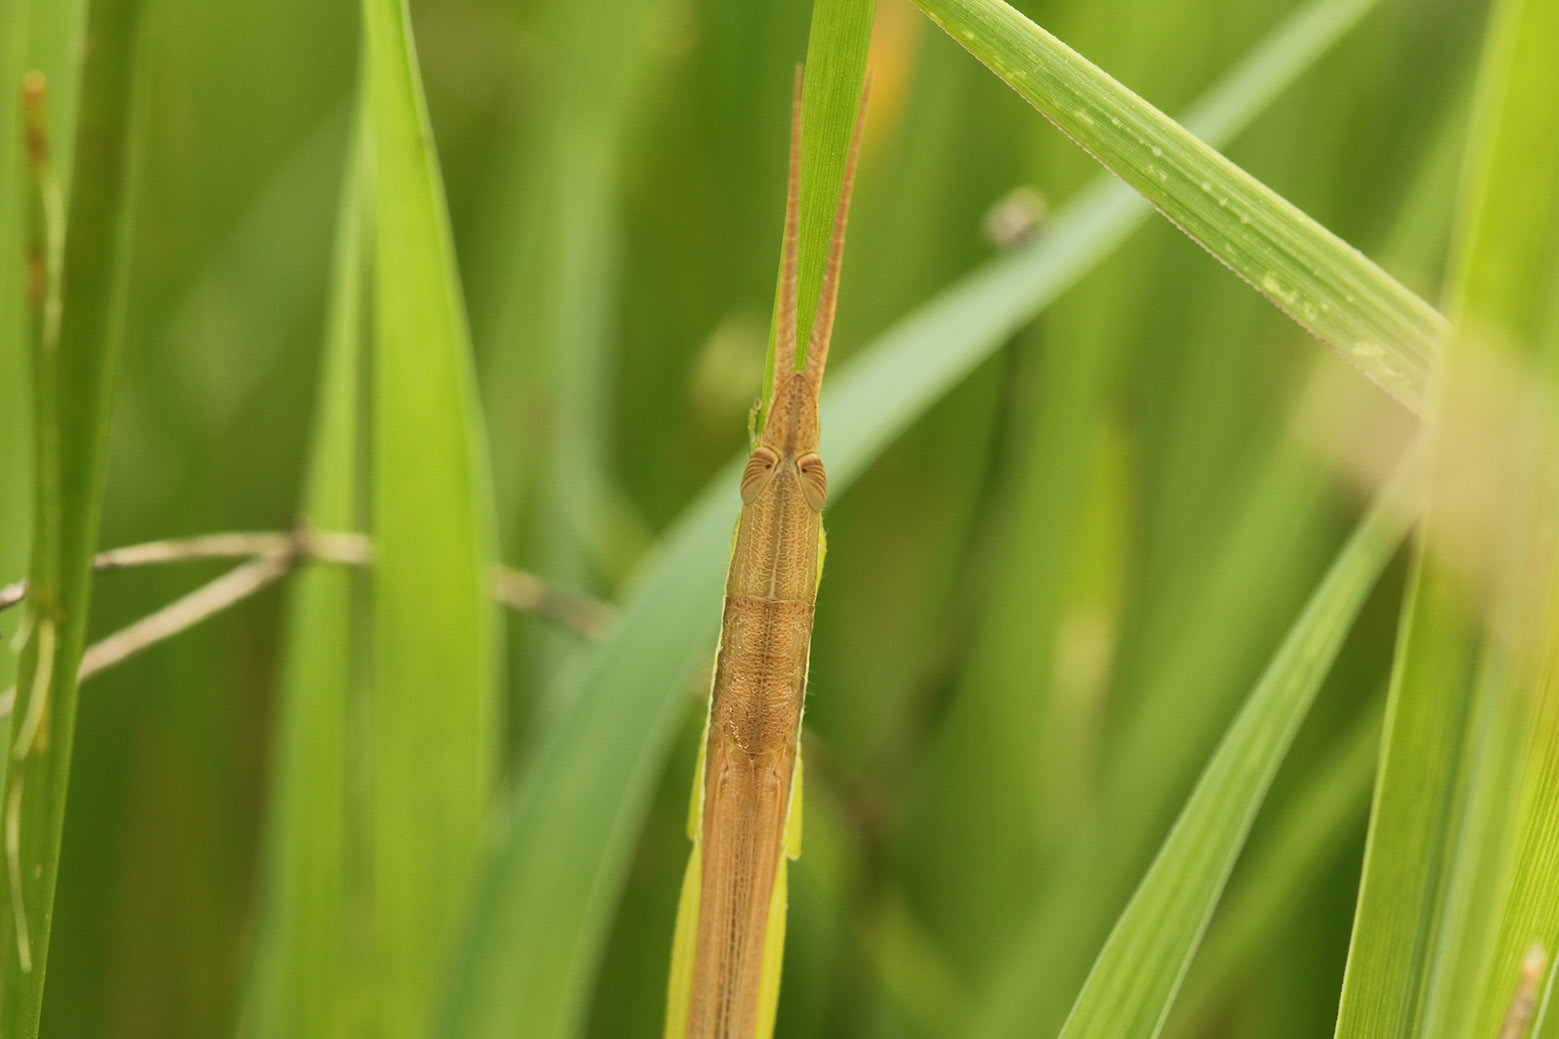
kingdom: Animalia
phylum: Arthropoda
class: Insecta
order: Orthoptera
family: Acrididae
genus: Leptysma
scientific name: Leptysma argentina
